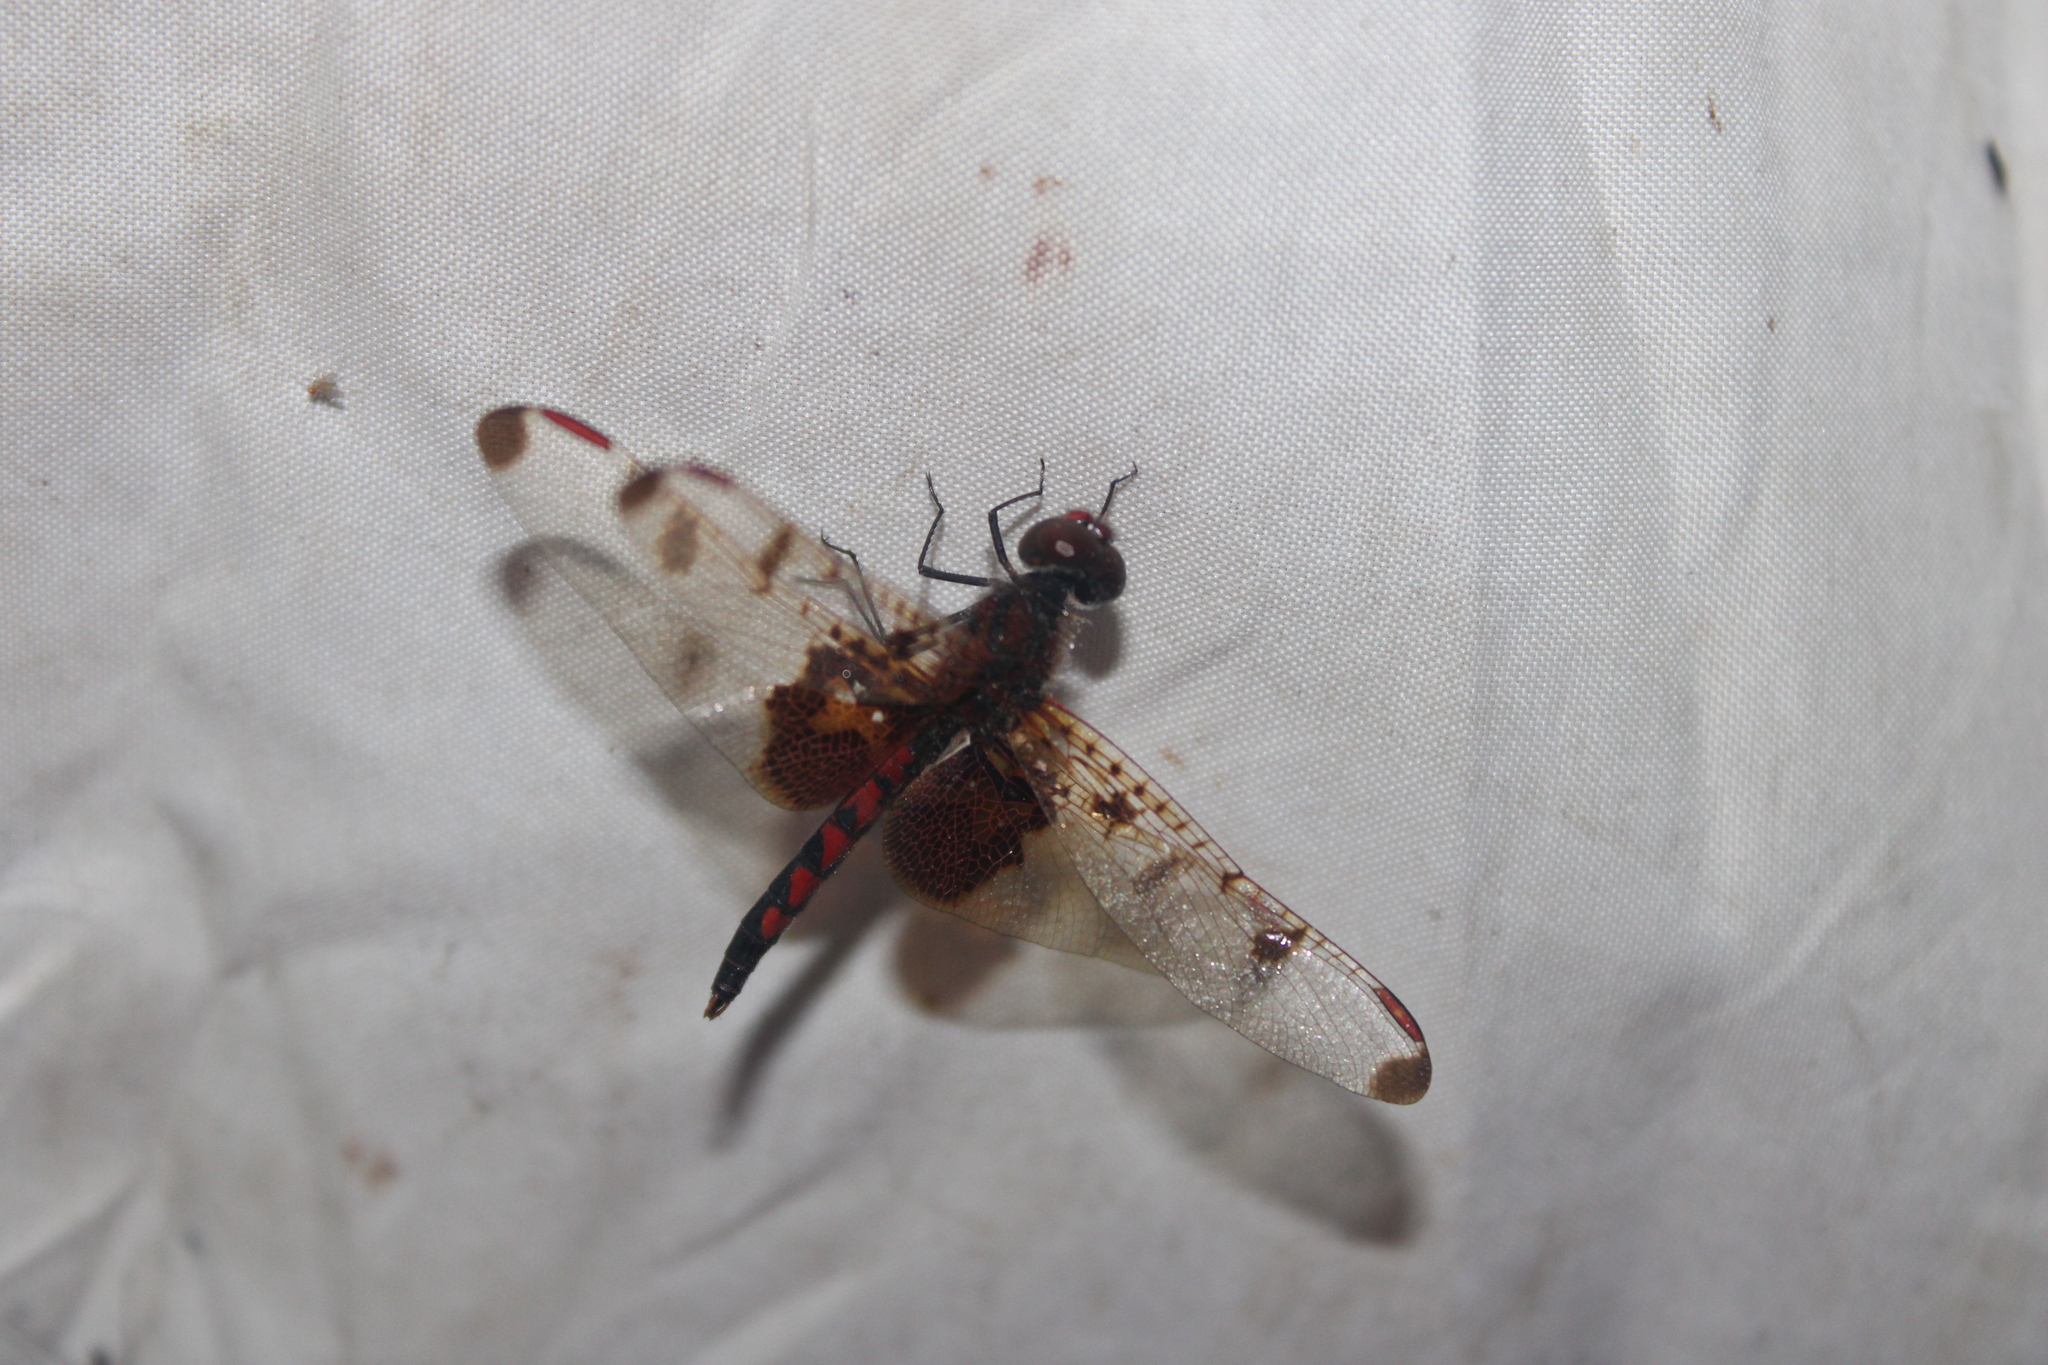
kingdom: Animalia
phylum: Arthropoda
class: Insecta
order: Odonata
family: Libellulidae
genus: Celithemis
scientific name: Celithemis elisa
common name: Calico pennant
